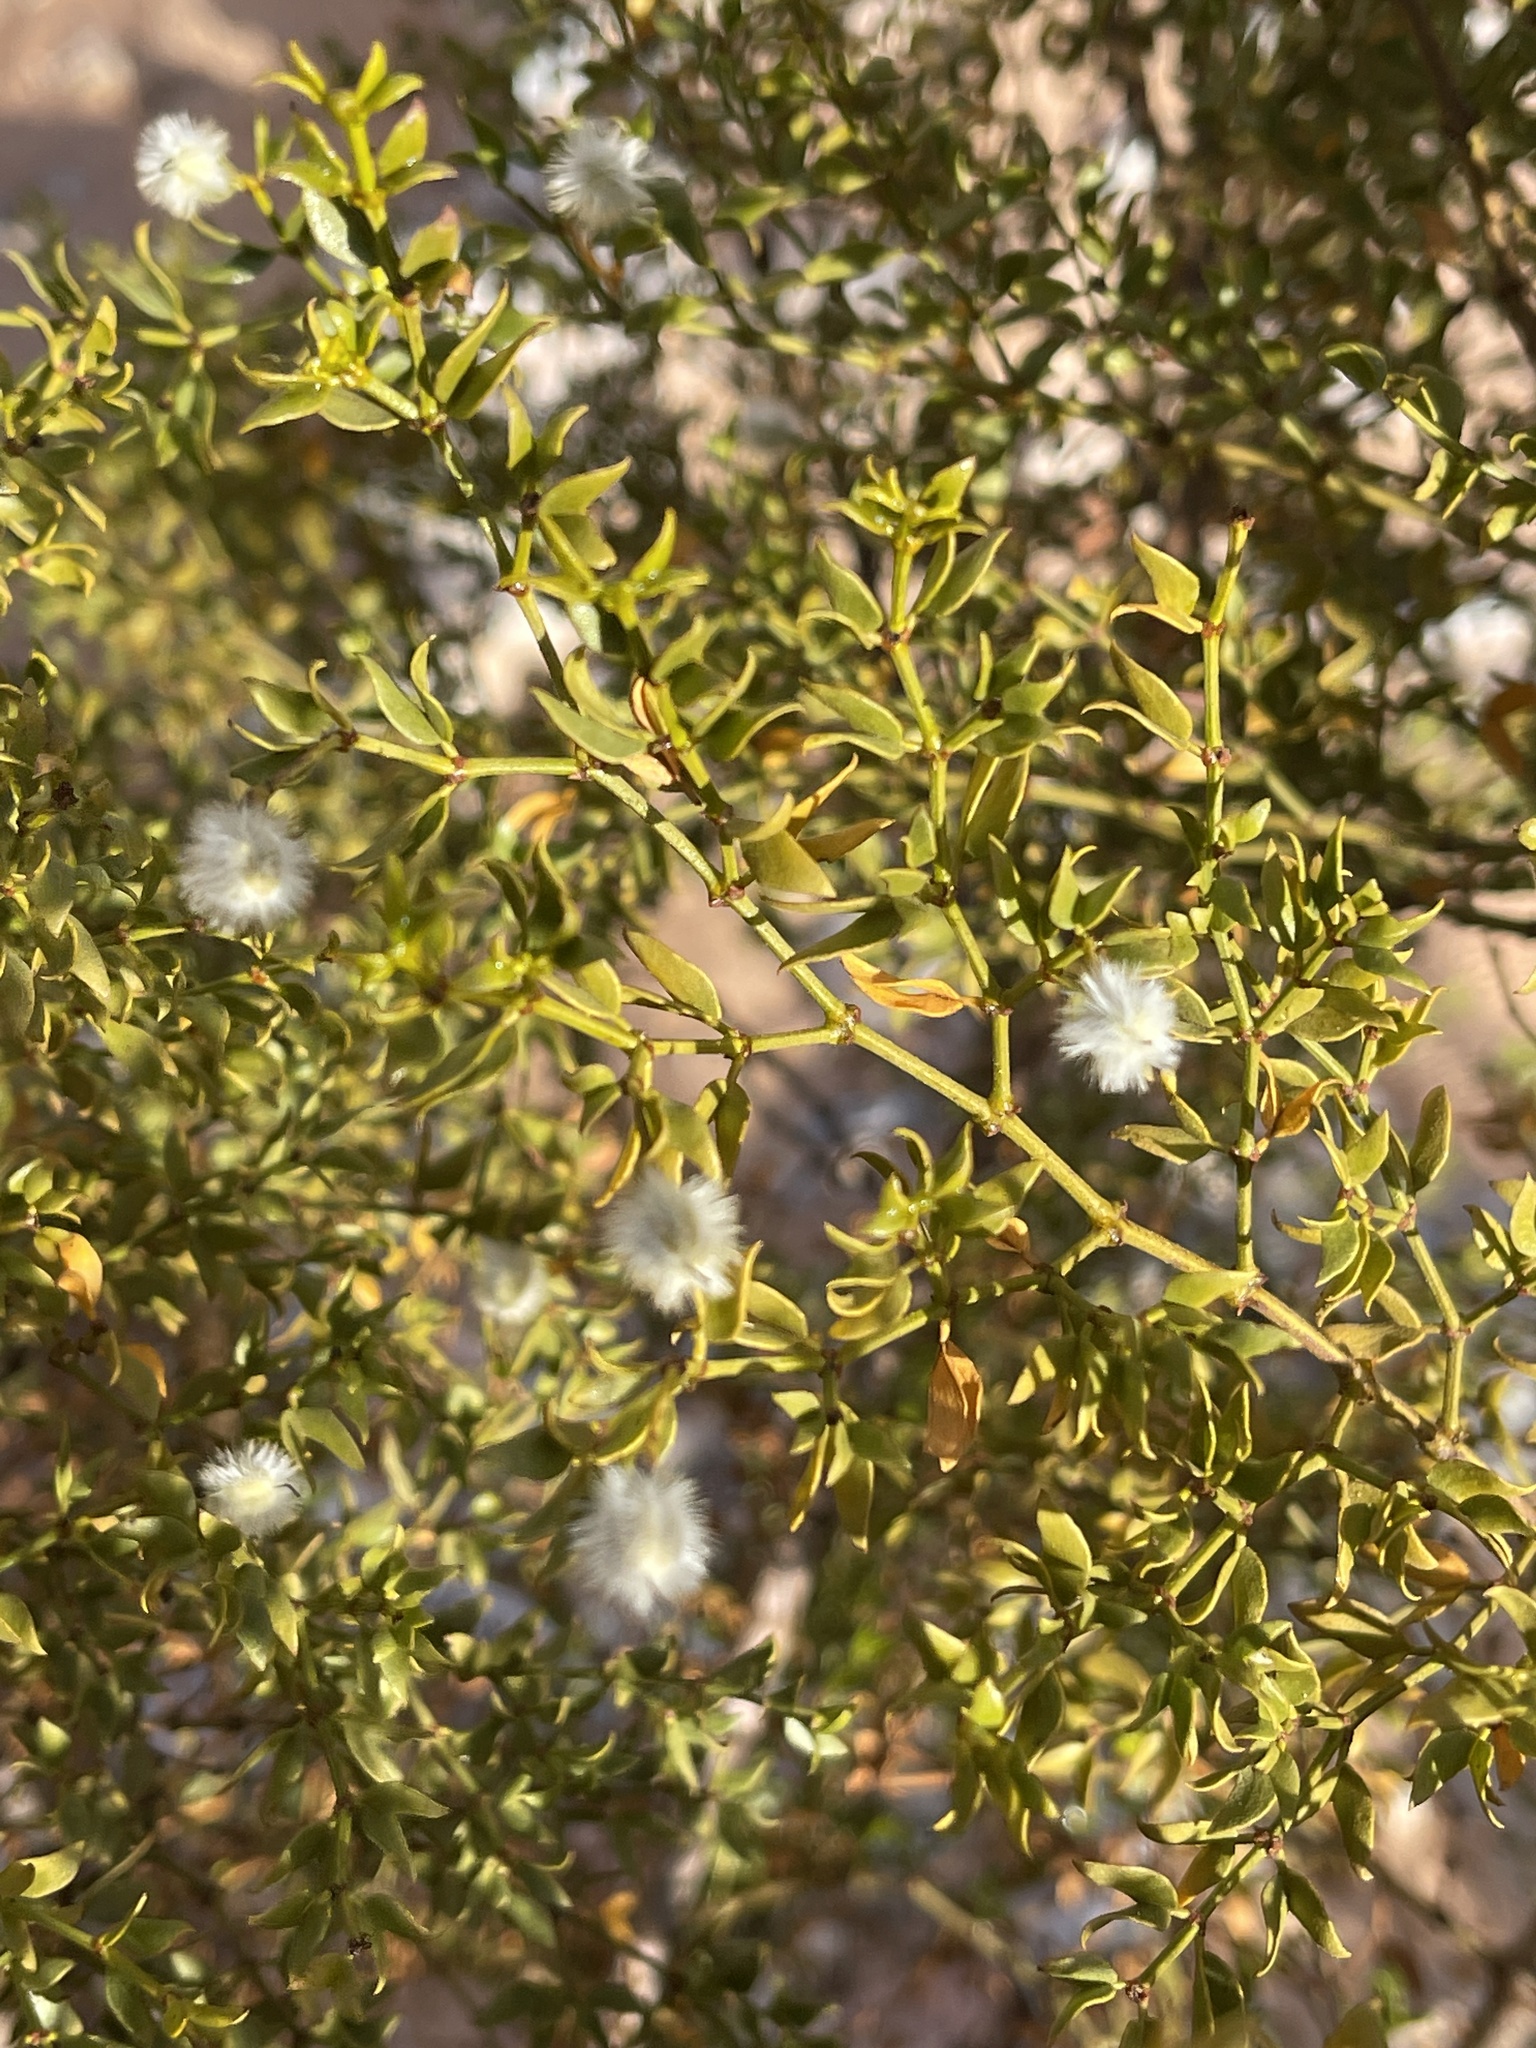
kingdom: Plantae
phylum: Tracheophyta
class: Magnoliopsida
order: Zygophyllales
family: Zygophyllaceae
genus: Larrea
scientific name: Larrea tridentata
